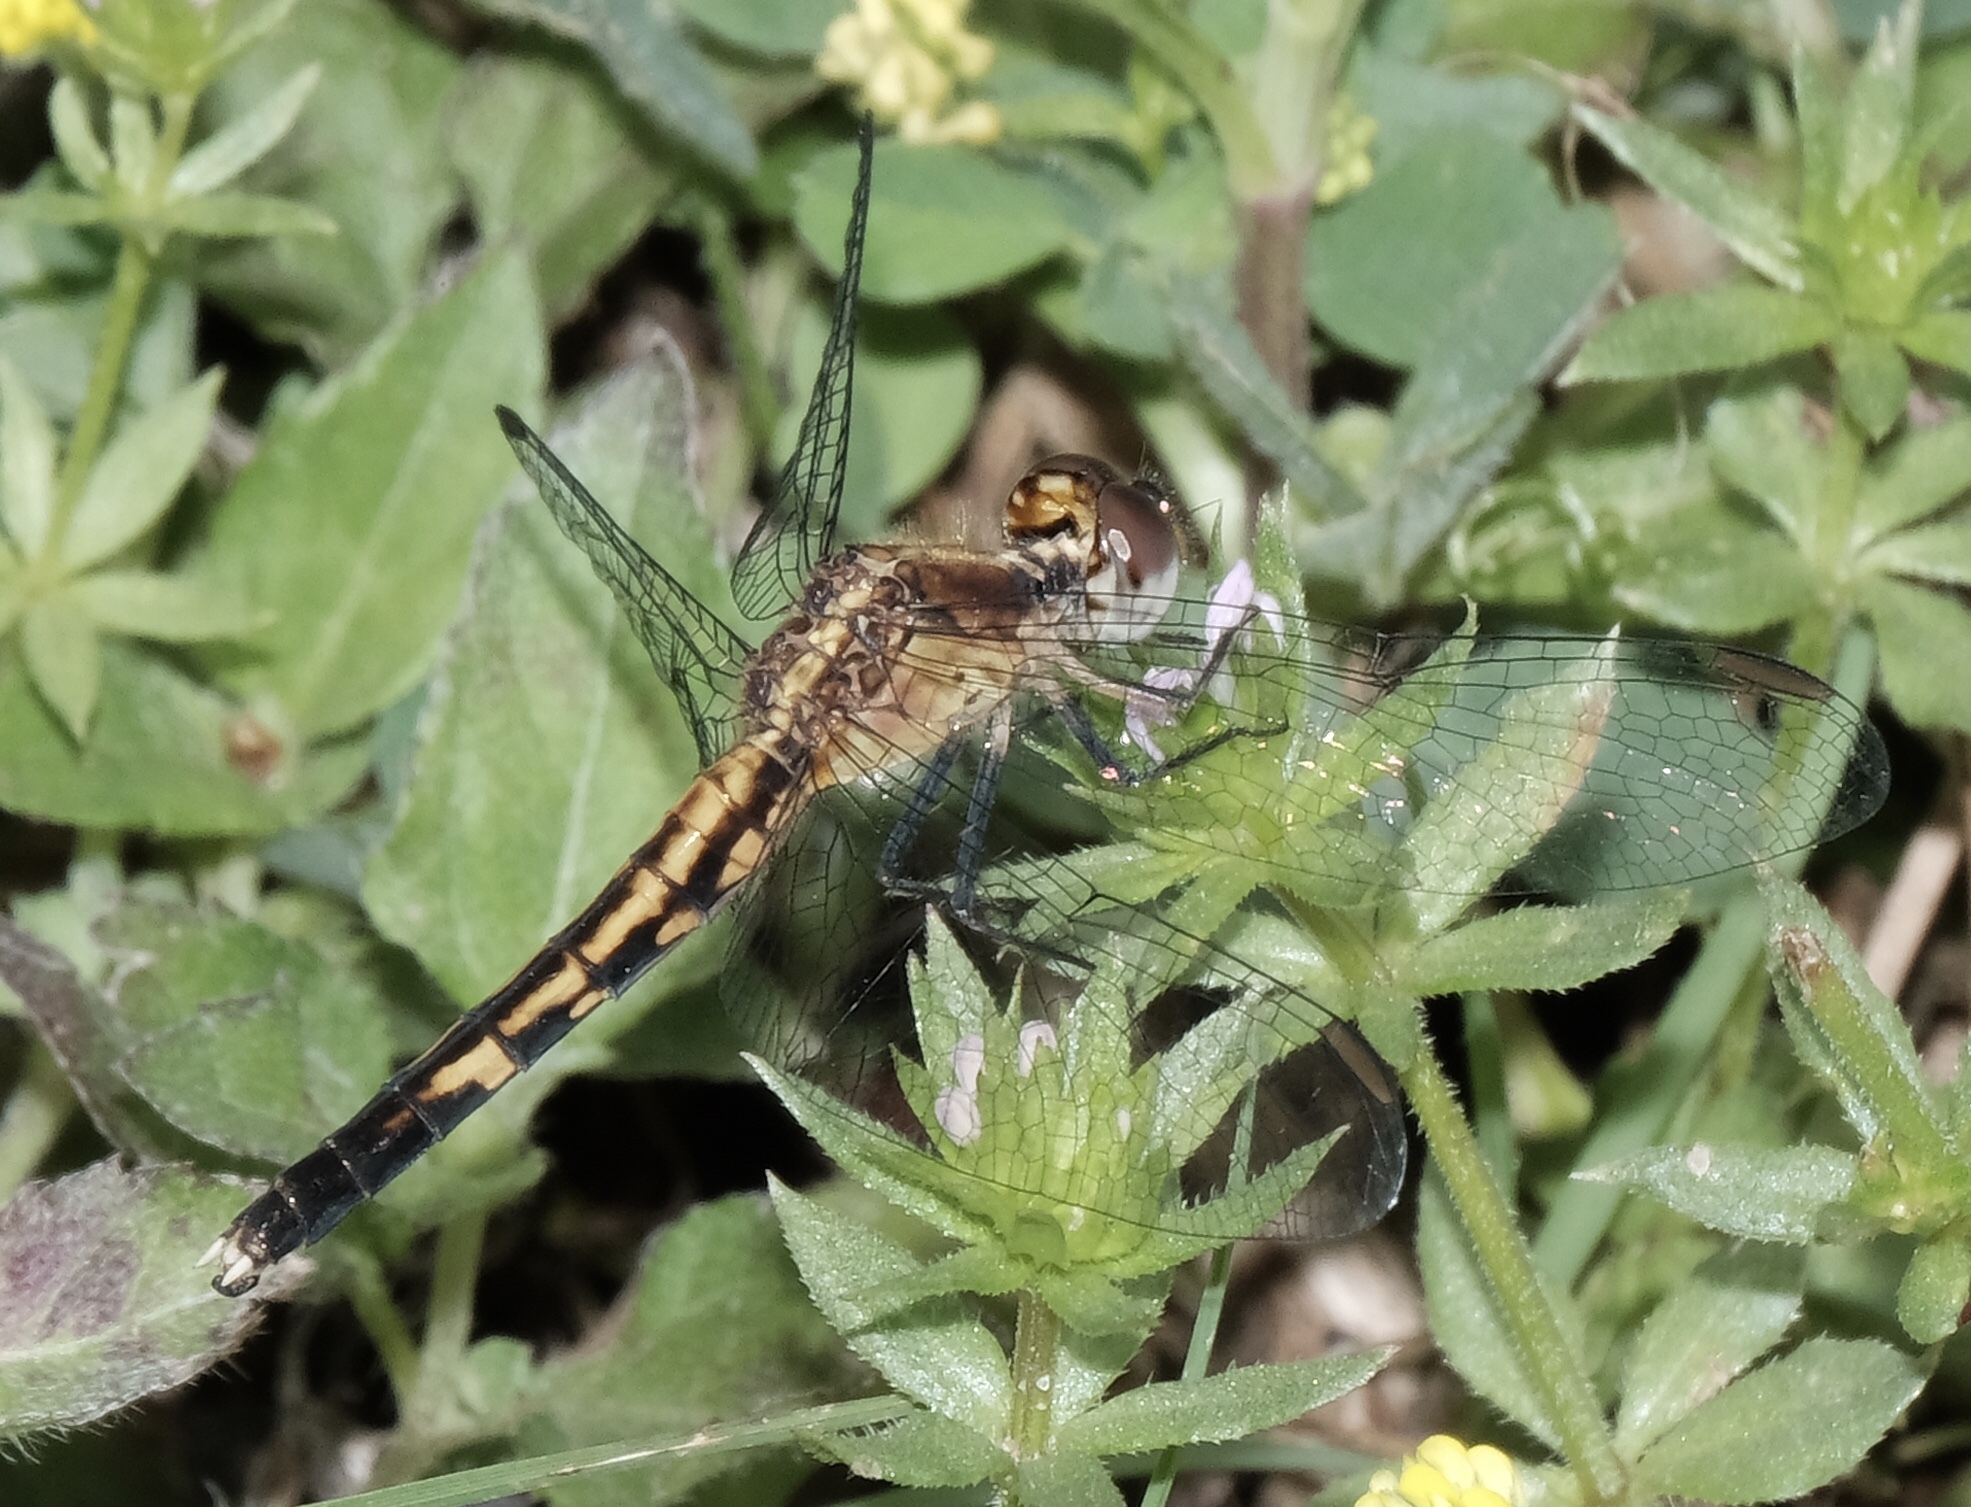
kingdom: Animalia
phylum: Arthropoda
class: Insecta
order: Odonata
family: Libellulidae
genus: Erythrodiplax
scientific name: Erythrodiplax minuscula
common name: Little blue dragonlet
